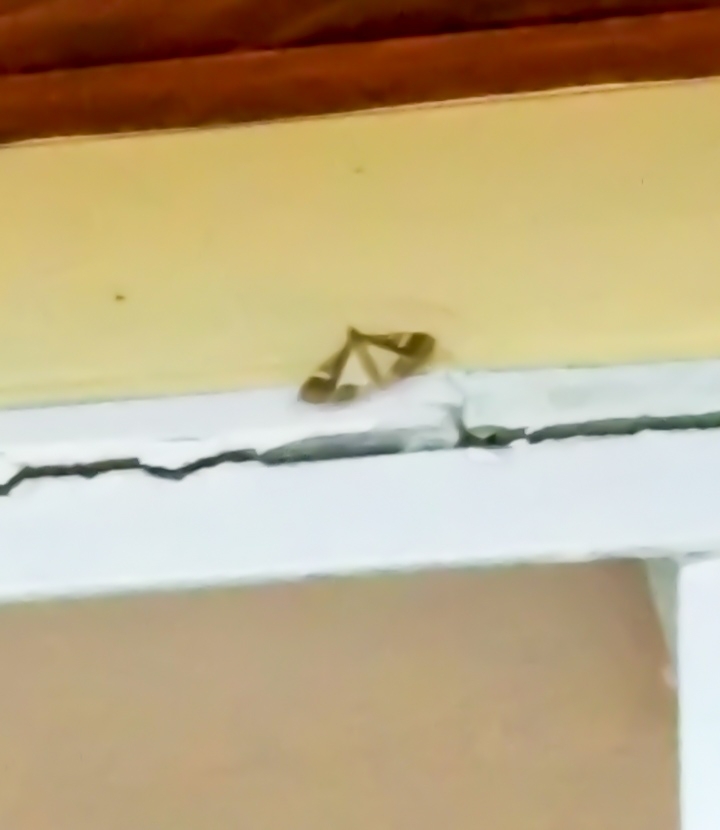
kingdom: Animalia
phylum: Arthropoda
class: Insecta
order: Lepidoptera
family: Crambidae
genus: Maruca
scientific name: Maruca vitrata
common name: Maruca pod borer
